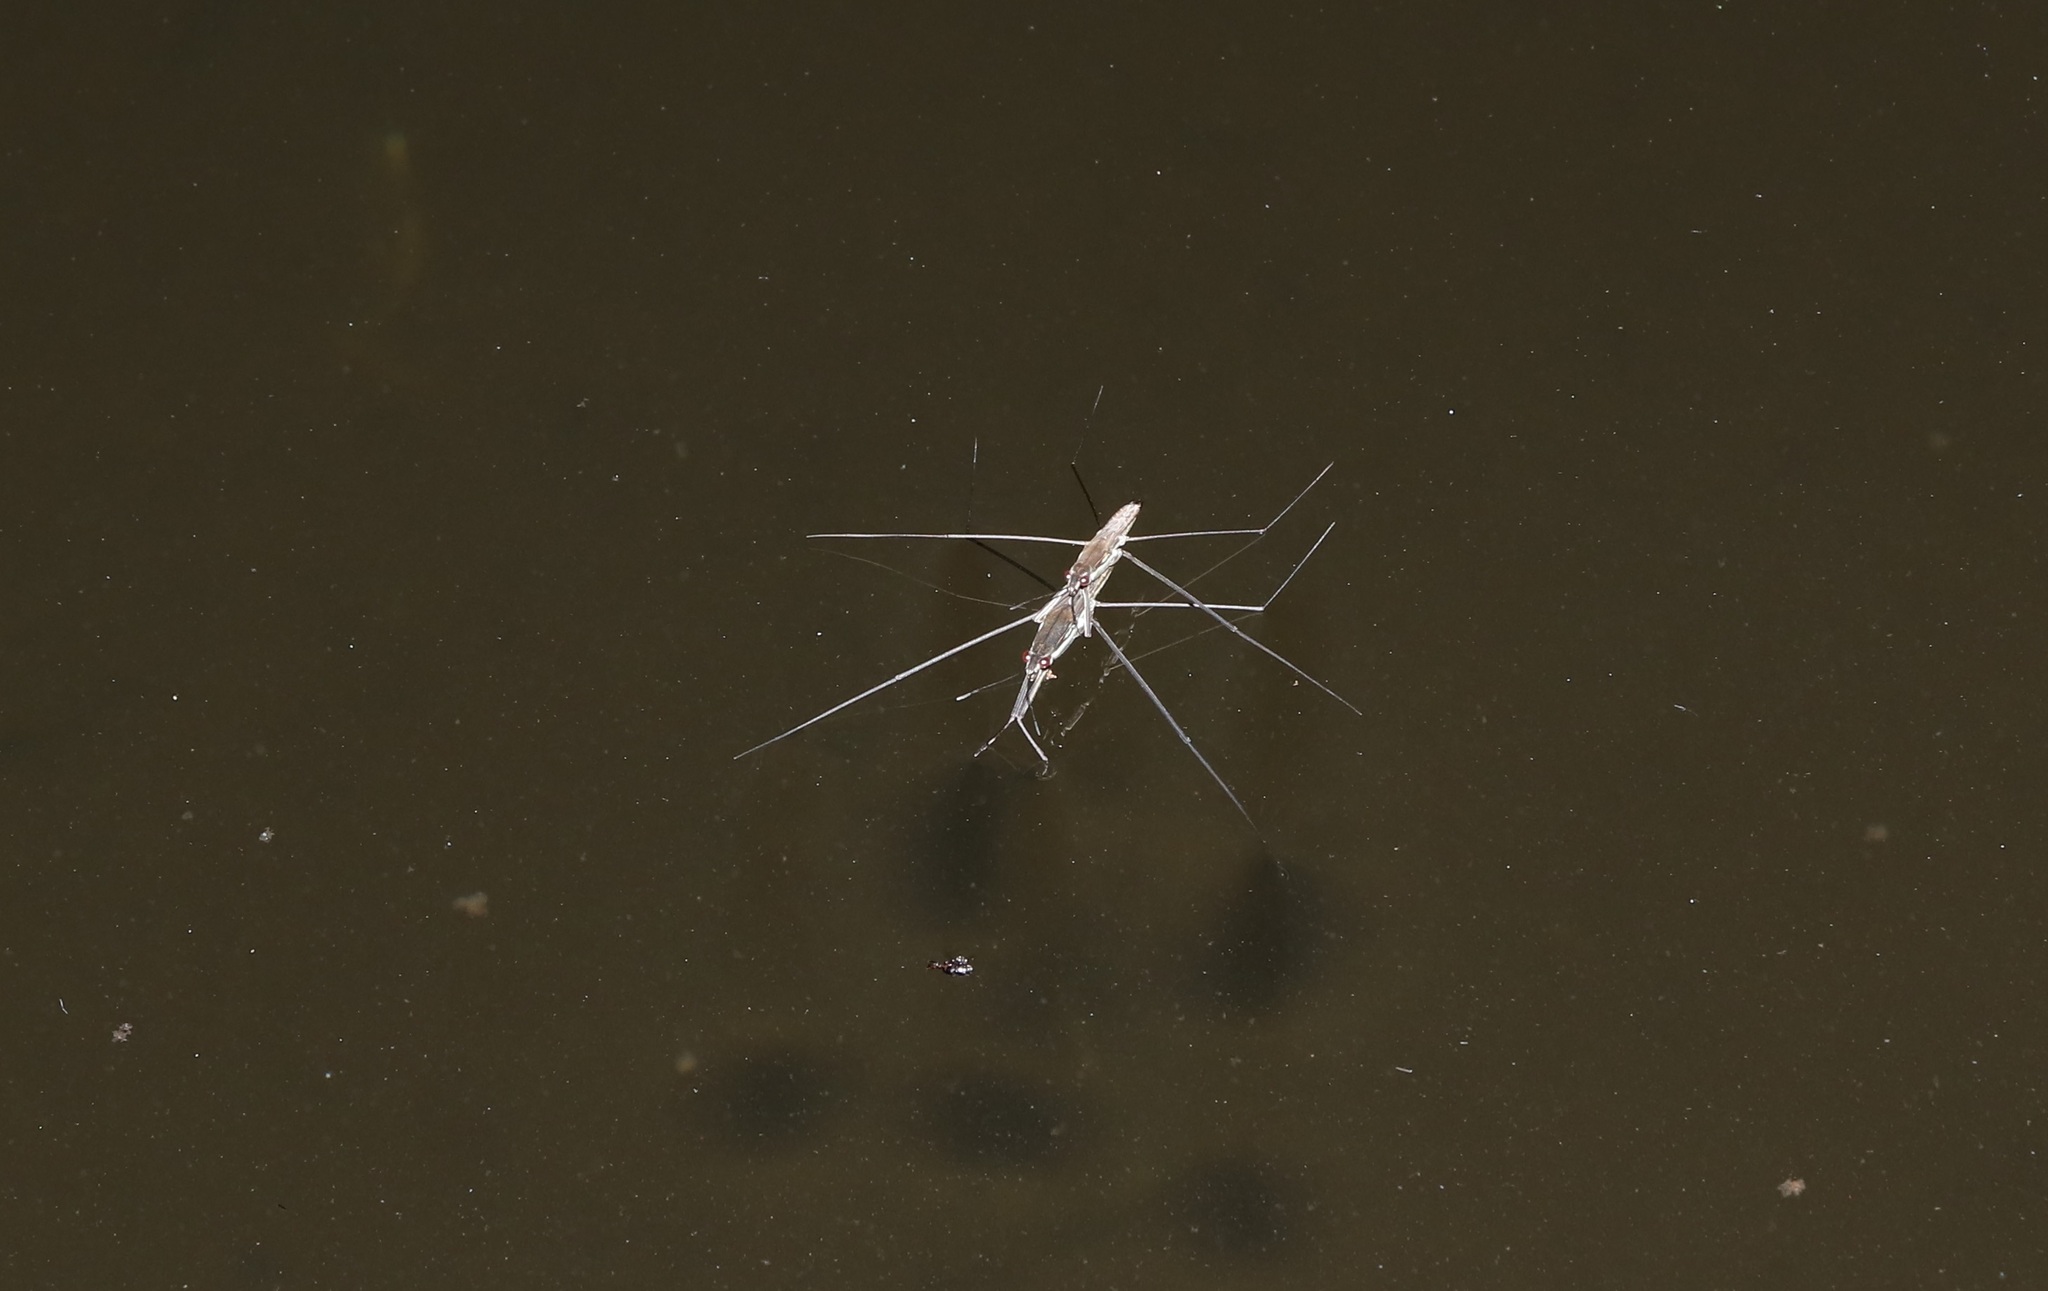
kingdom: Animalia
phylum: Arthropoda
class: Insecta
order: Hemiptera
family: Gerridae
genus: Aquarius
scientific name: Aquarius paludum
